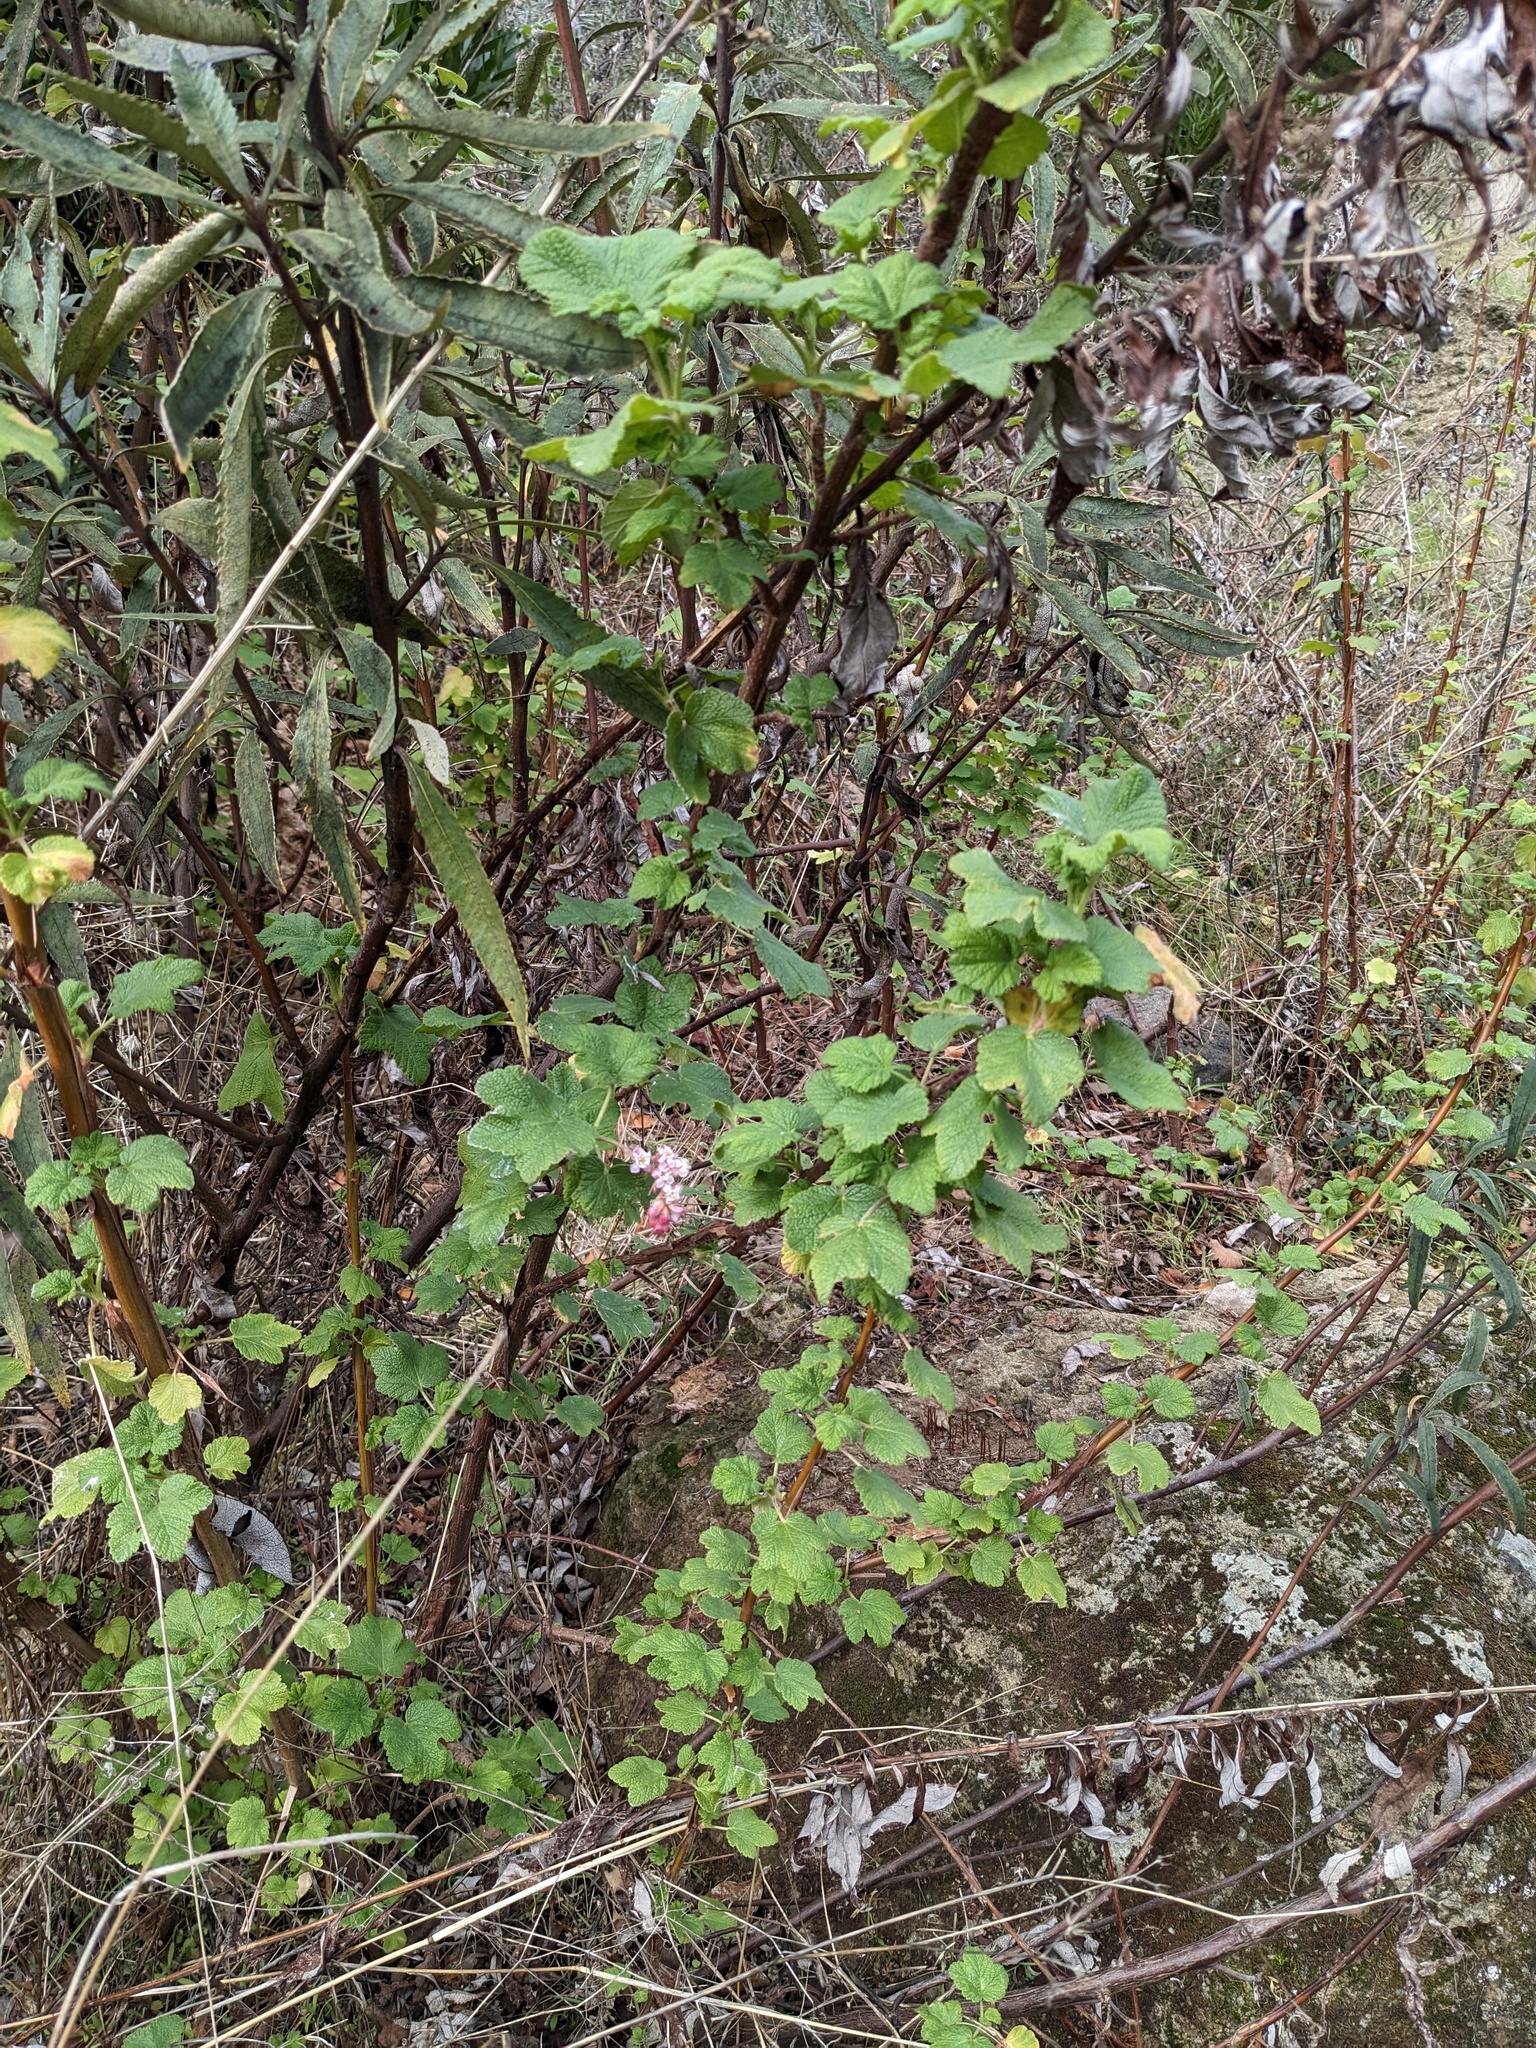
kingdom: Plantae
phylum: Tracheophyta
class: Magnoliopsida
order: Saxifragales
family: Grossulariaceae
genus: Ribes
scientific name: Ribes malvaceum
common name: Chaparral currant
